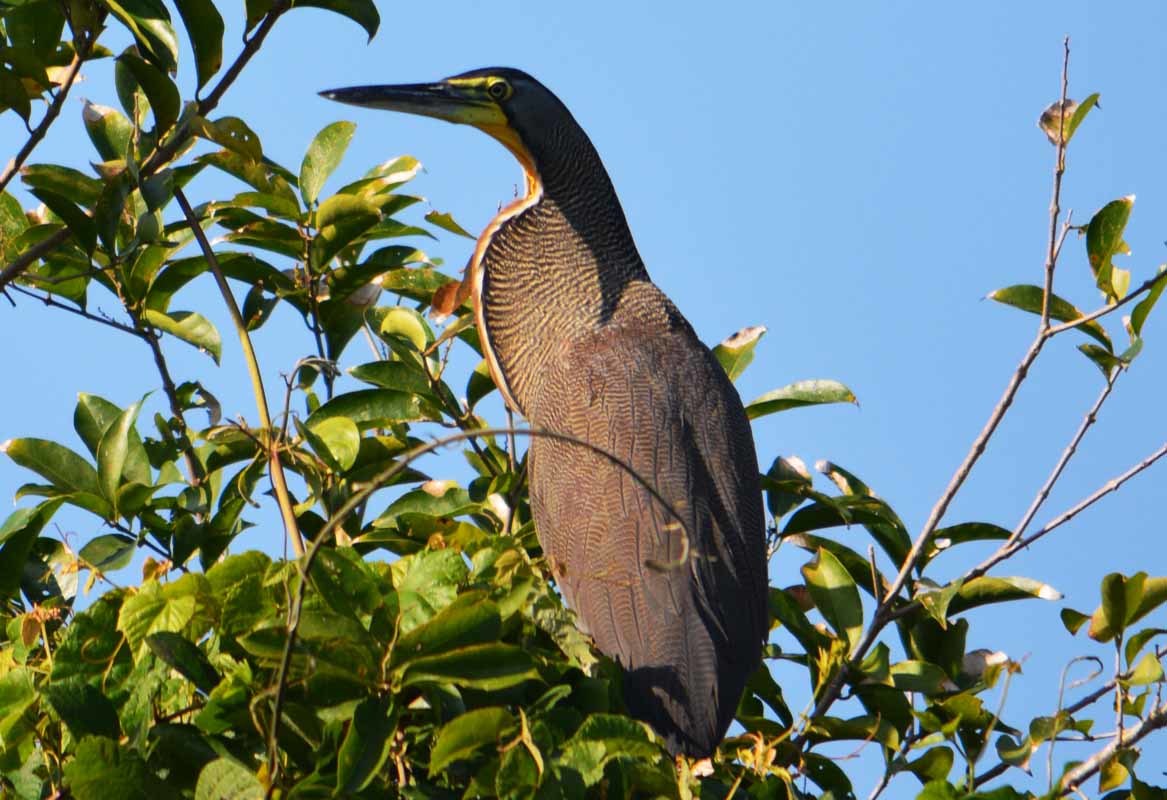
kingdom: Animalia
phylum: Chordata
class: Aves
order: Pelecaniformes
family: Ardeidae
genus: Tigrisoma
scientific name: Tigrisoma mexicanum
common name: Bare-throated tiger-heron
